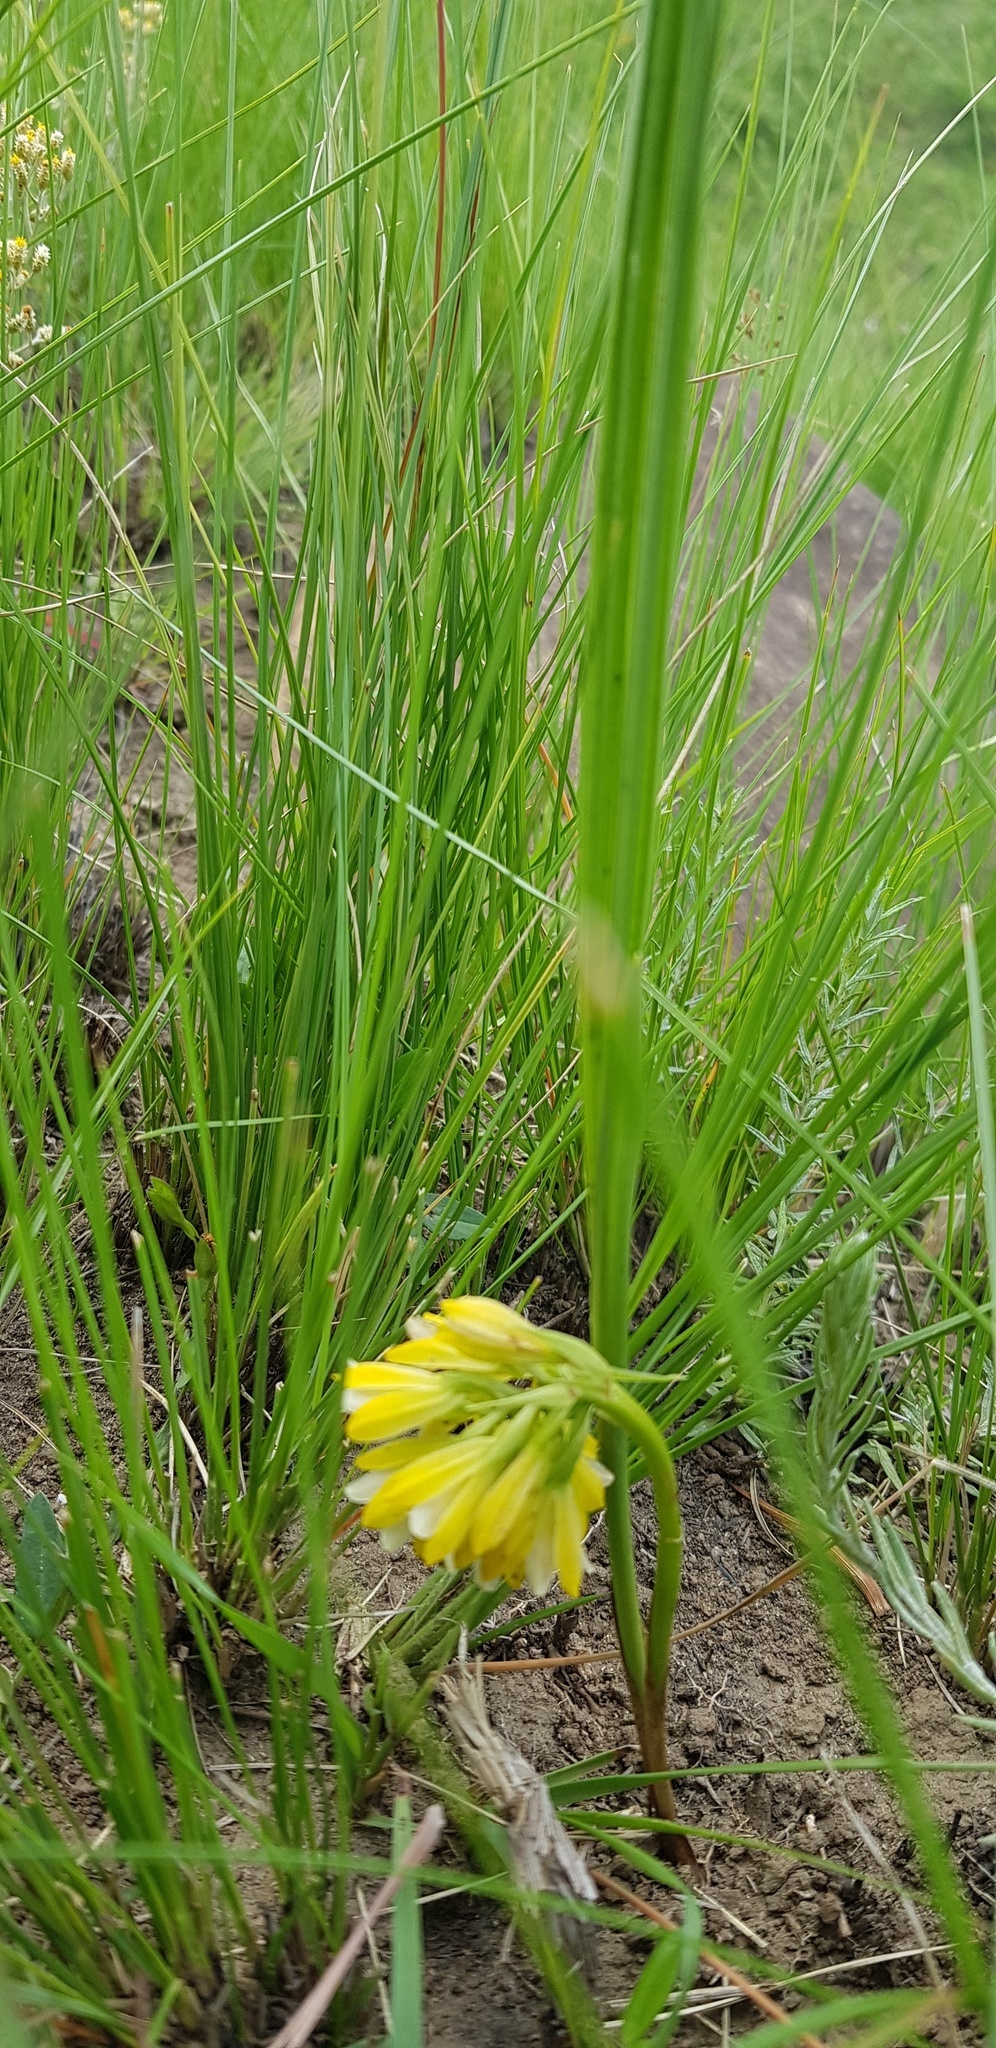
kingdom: Plantae
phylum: Tracheophyta
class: Liliopsida
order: Asparagales
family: Orchidaceae
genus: Eulophia
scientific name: Eulophia leontoglossa
